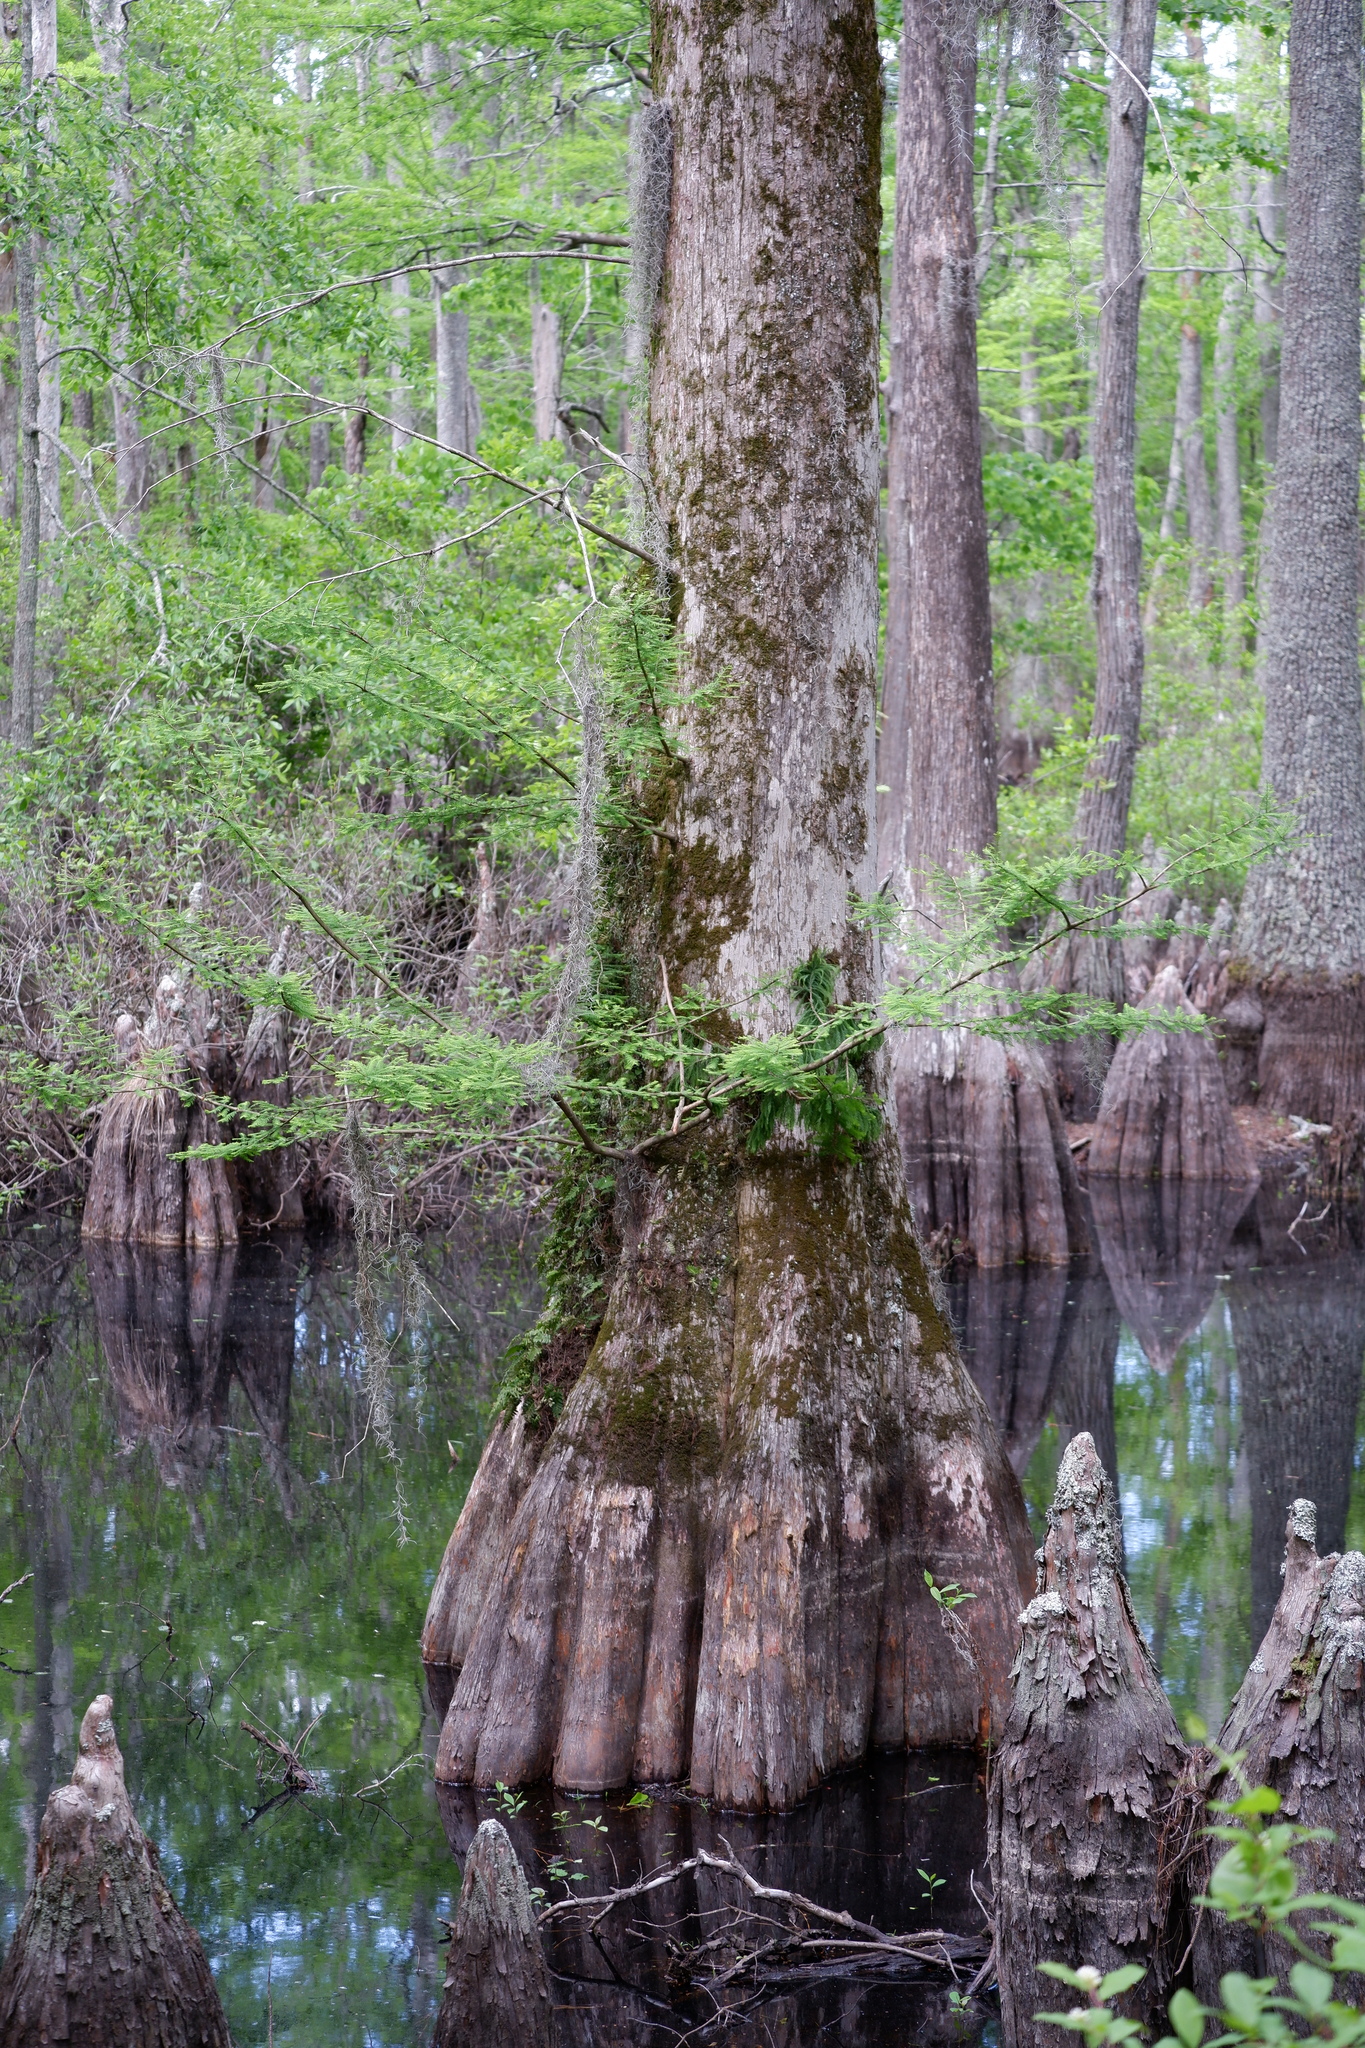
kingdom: Plantae
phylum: Tracheophyta
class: Pinopsida
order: Pinales
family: Cupressaceae
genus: Taxodium
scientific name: Taxodium distichum
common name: Bald cypress
